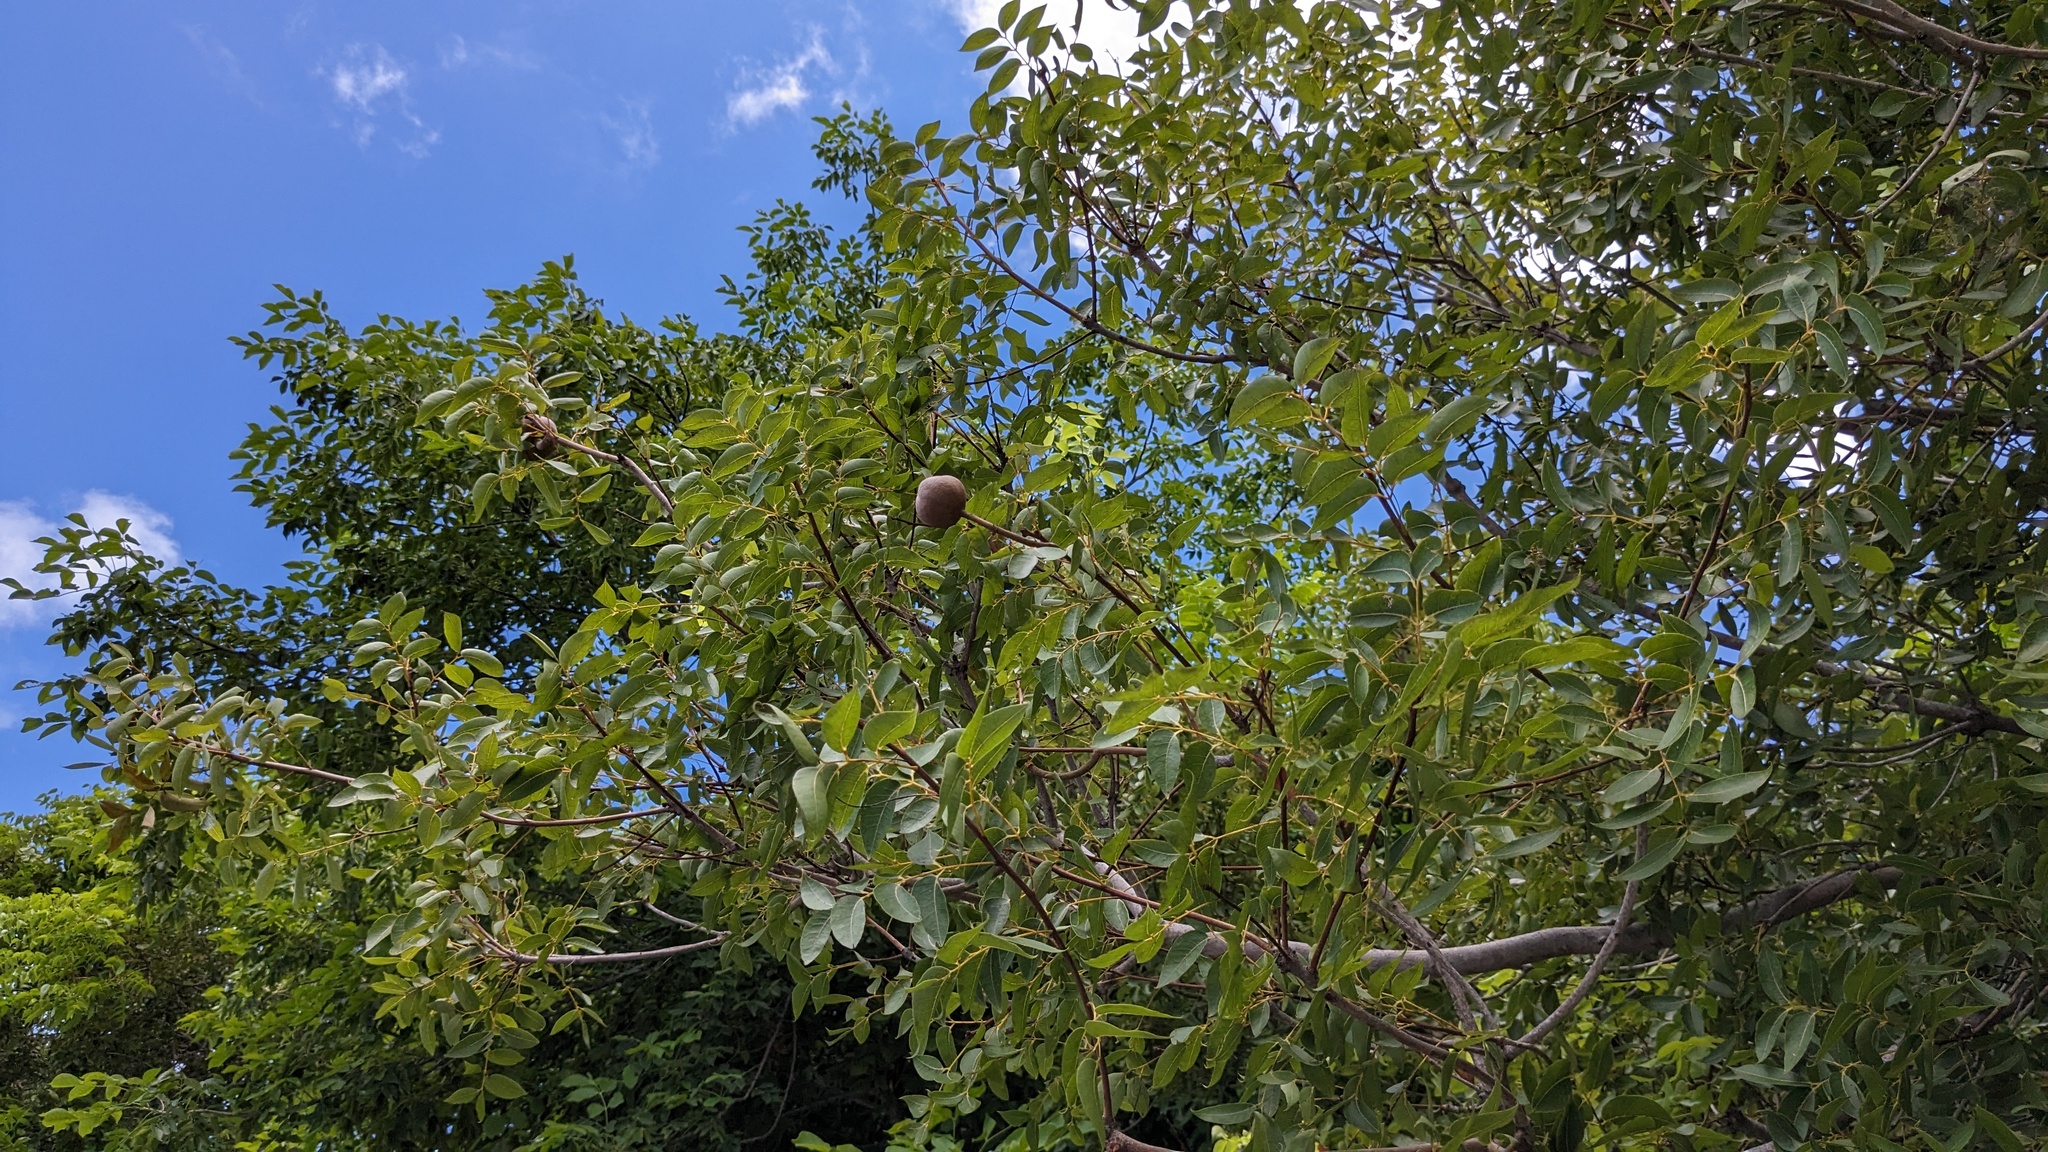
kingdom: Plantae
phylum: Tracheophyta
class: Magnoliopsida
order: Sapindales
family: Meliaceae
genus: Swietenia
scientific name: Swietenia mahagoni
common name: West indian mahogany
